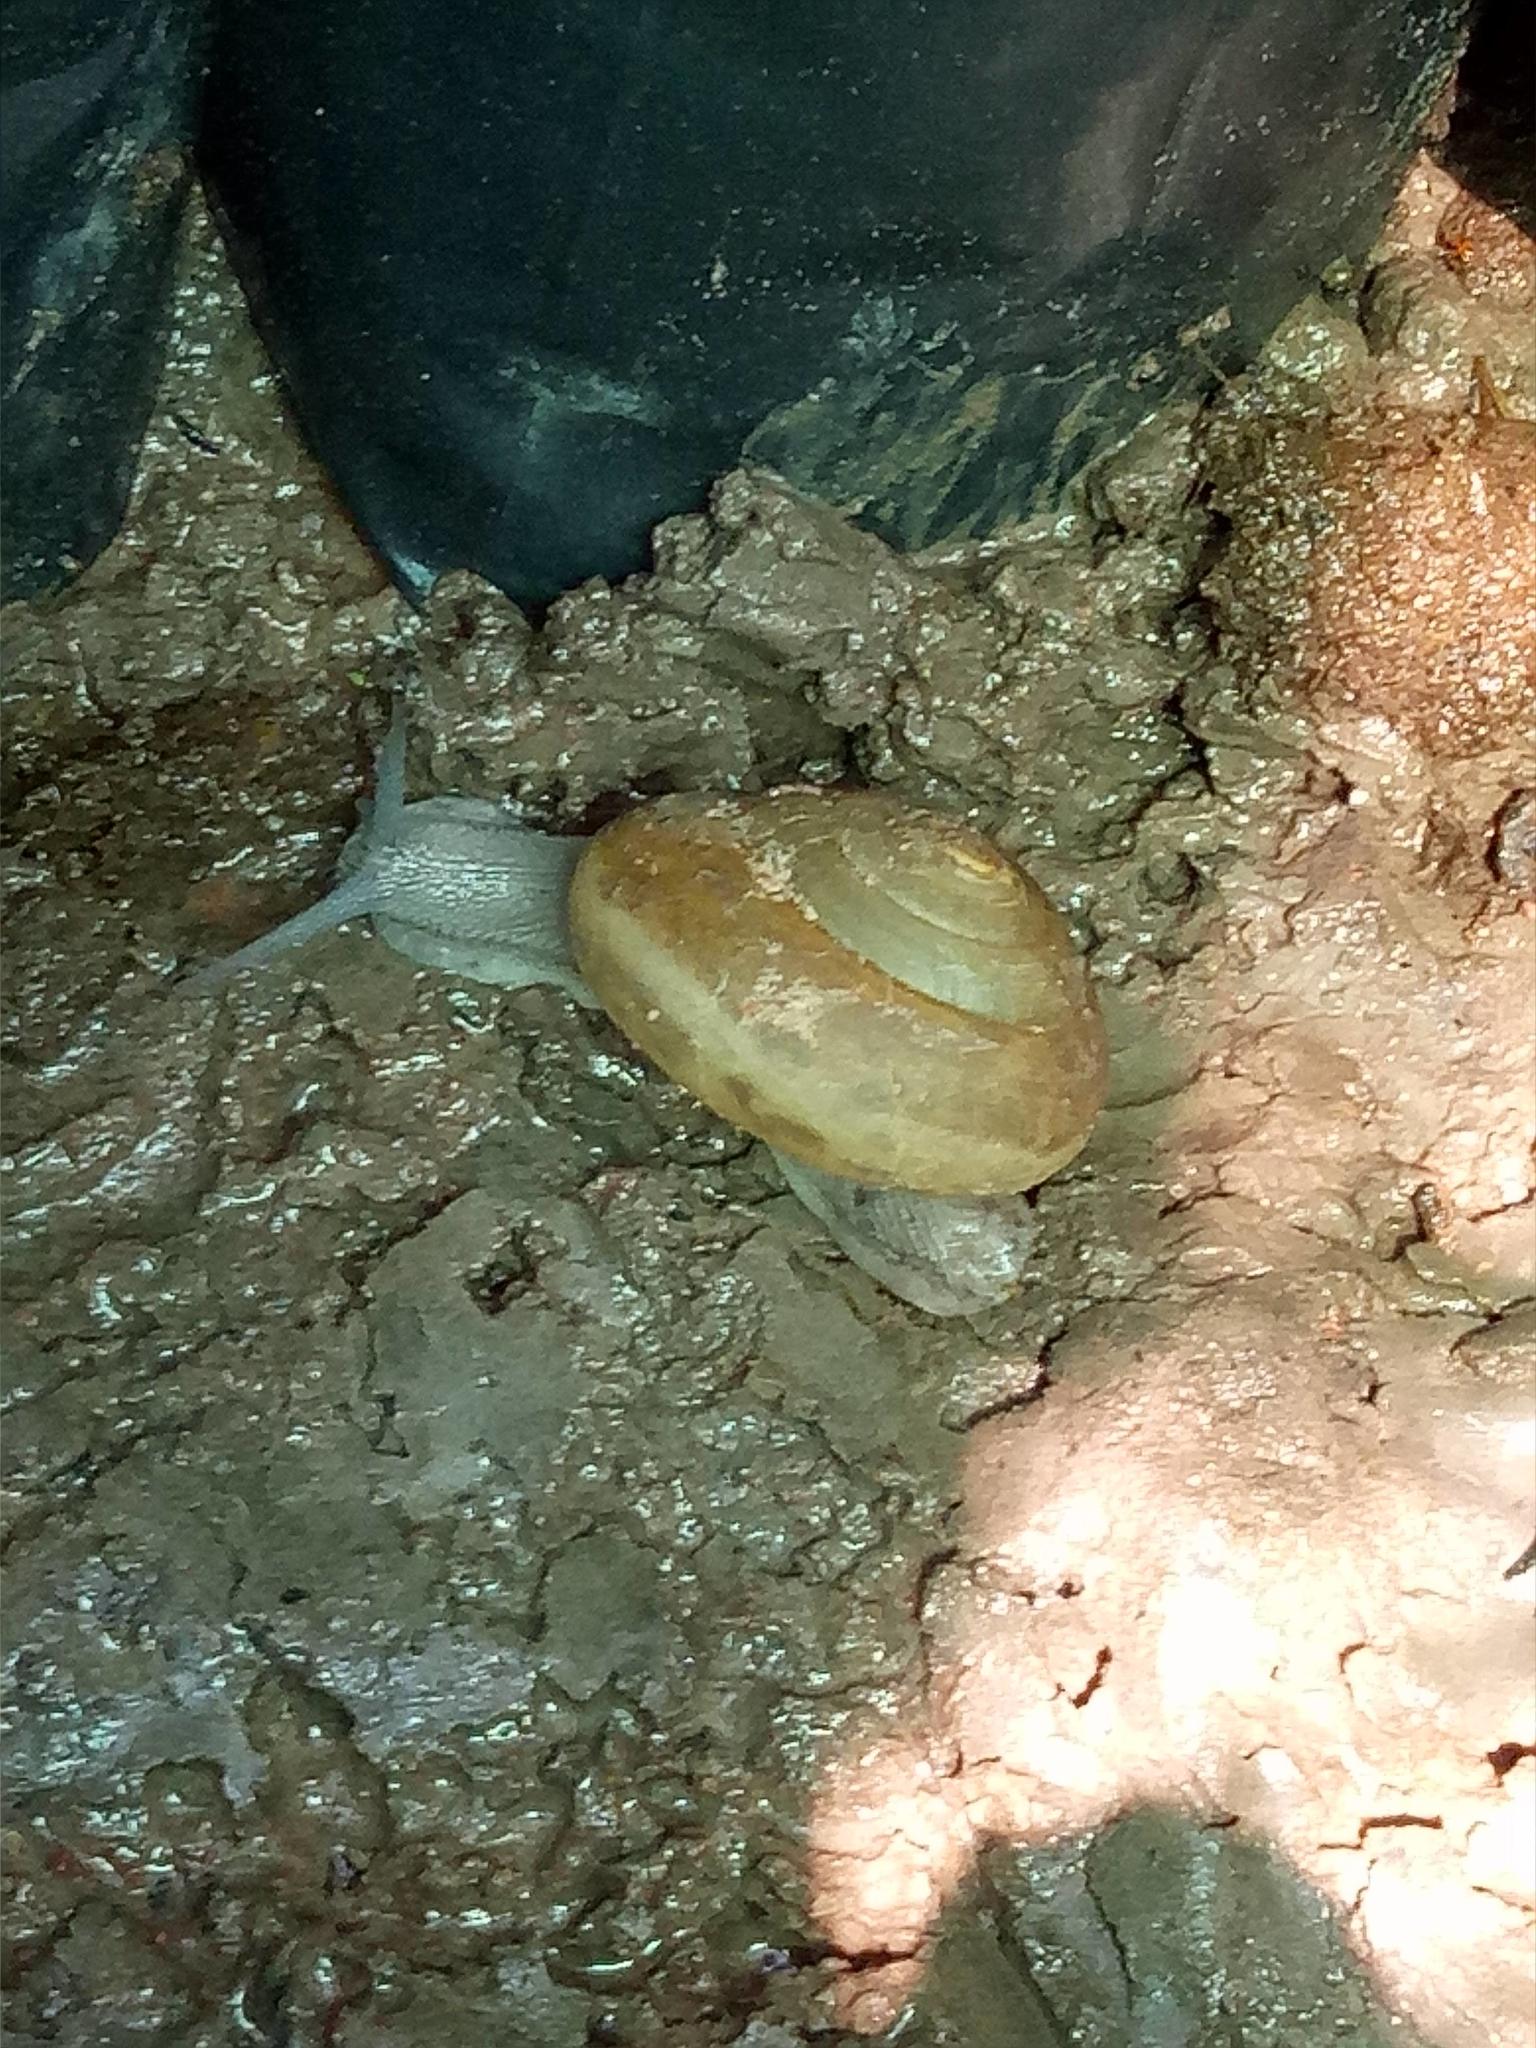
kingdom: Animalia
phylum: Mollusca
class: Gastropoda
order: Stylommatophora
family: Ariophantidae
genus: Sarika
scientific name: Sarika siamensis
